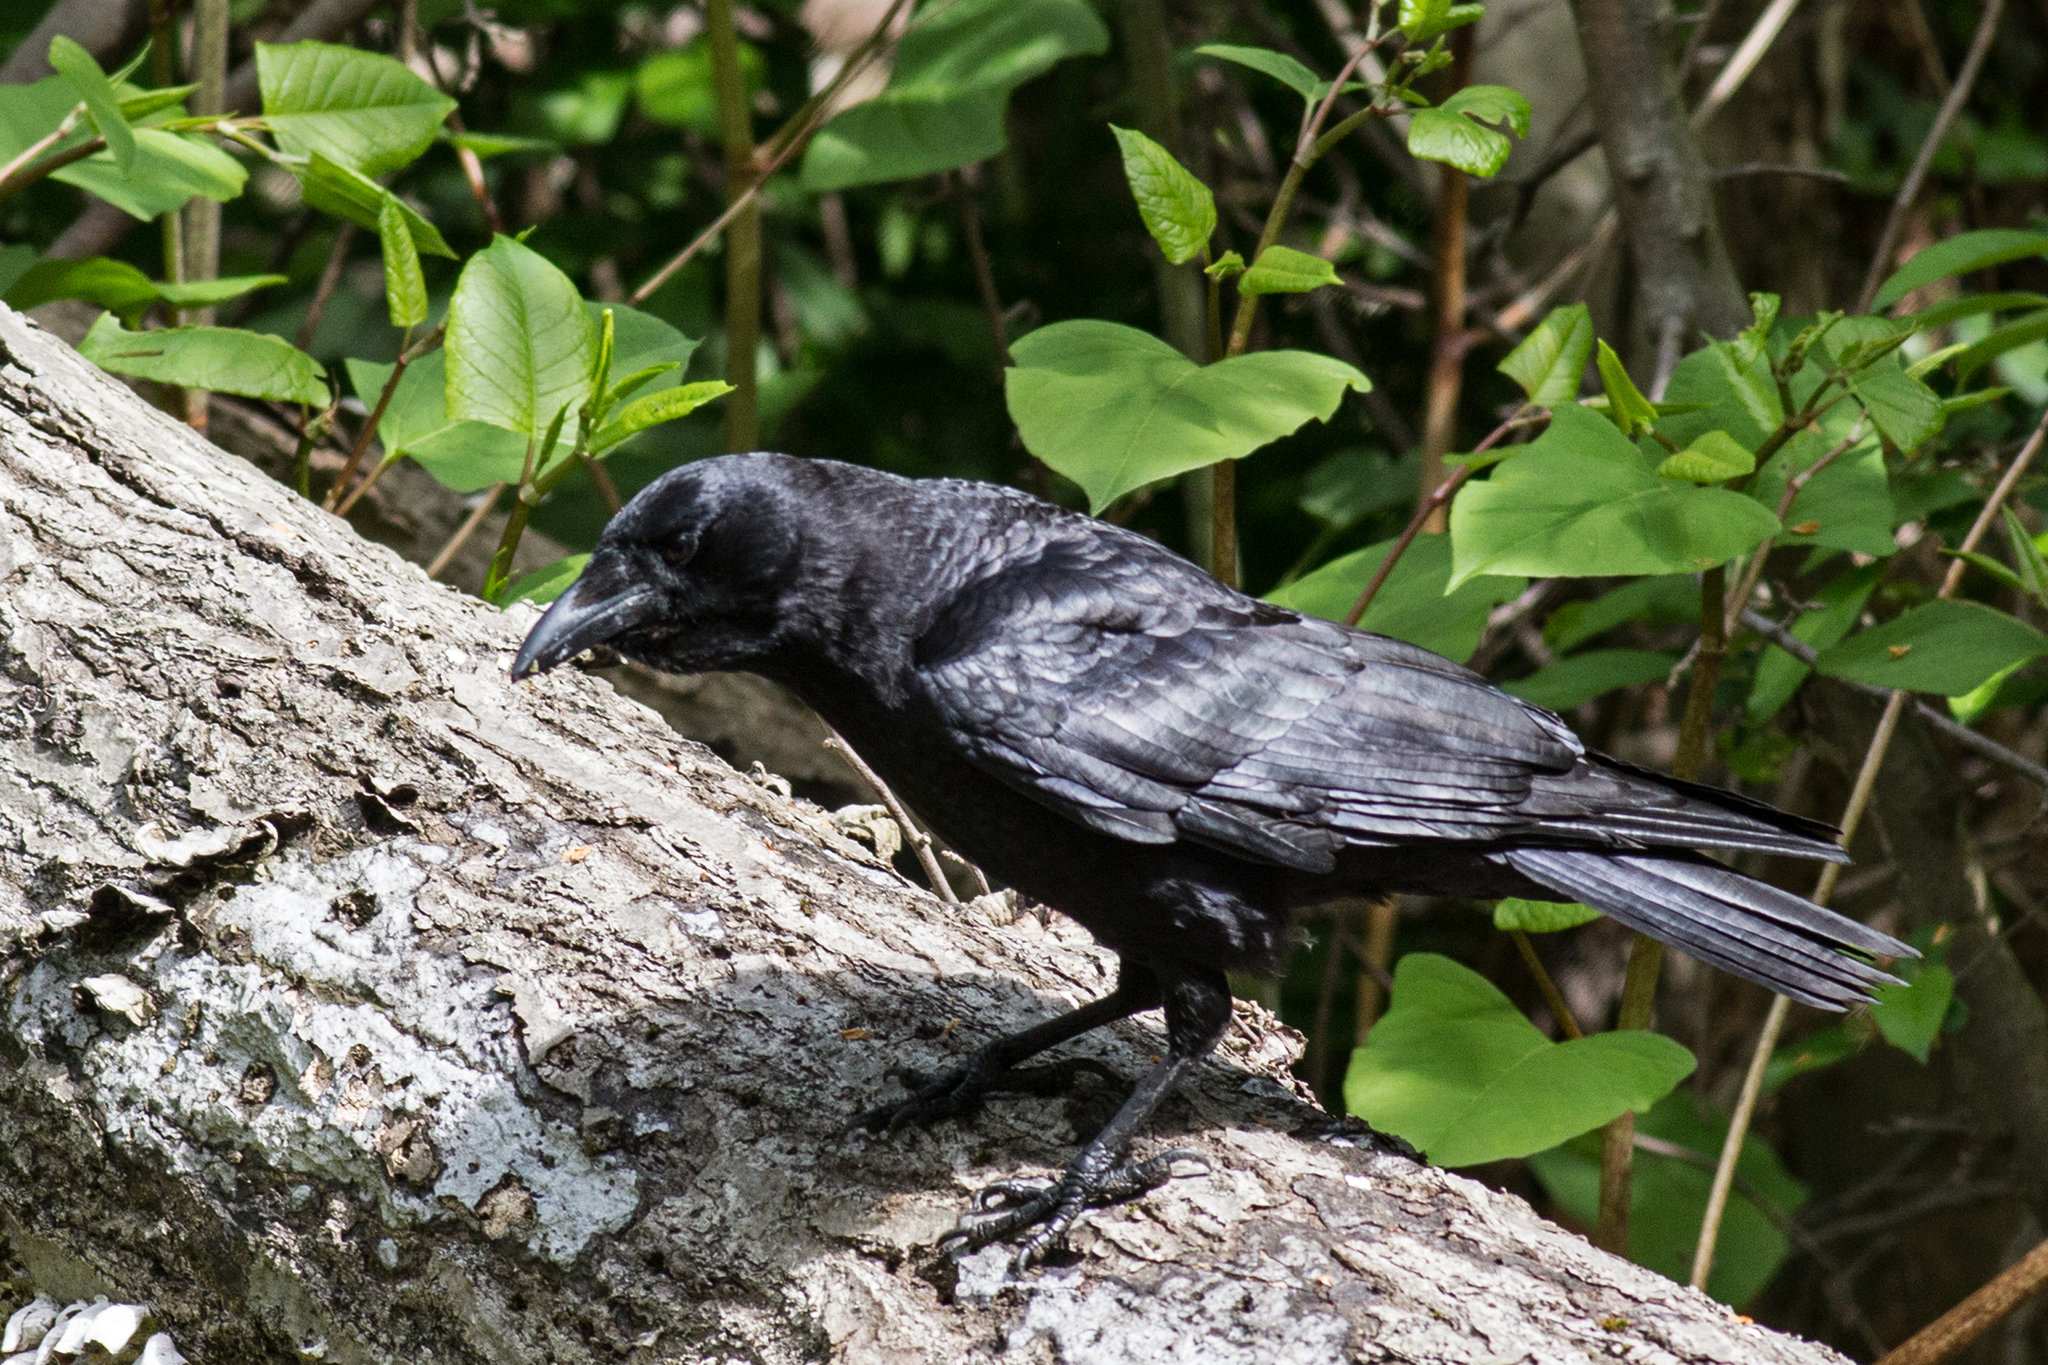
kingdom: Animalia
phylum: Chordata
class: Aves
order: Passeriformes
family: Corvidae
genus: Corvus
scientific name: Corvus brachyrhynchos
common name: American crow
